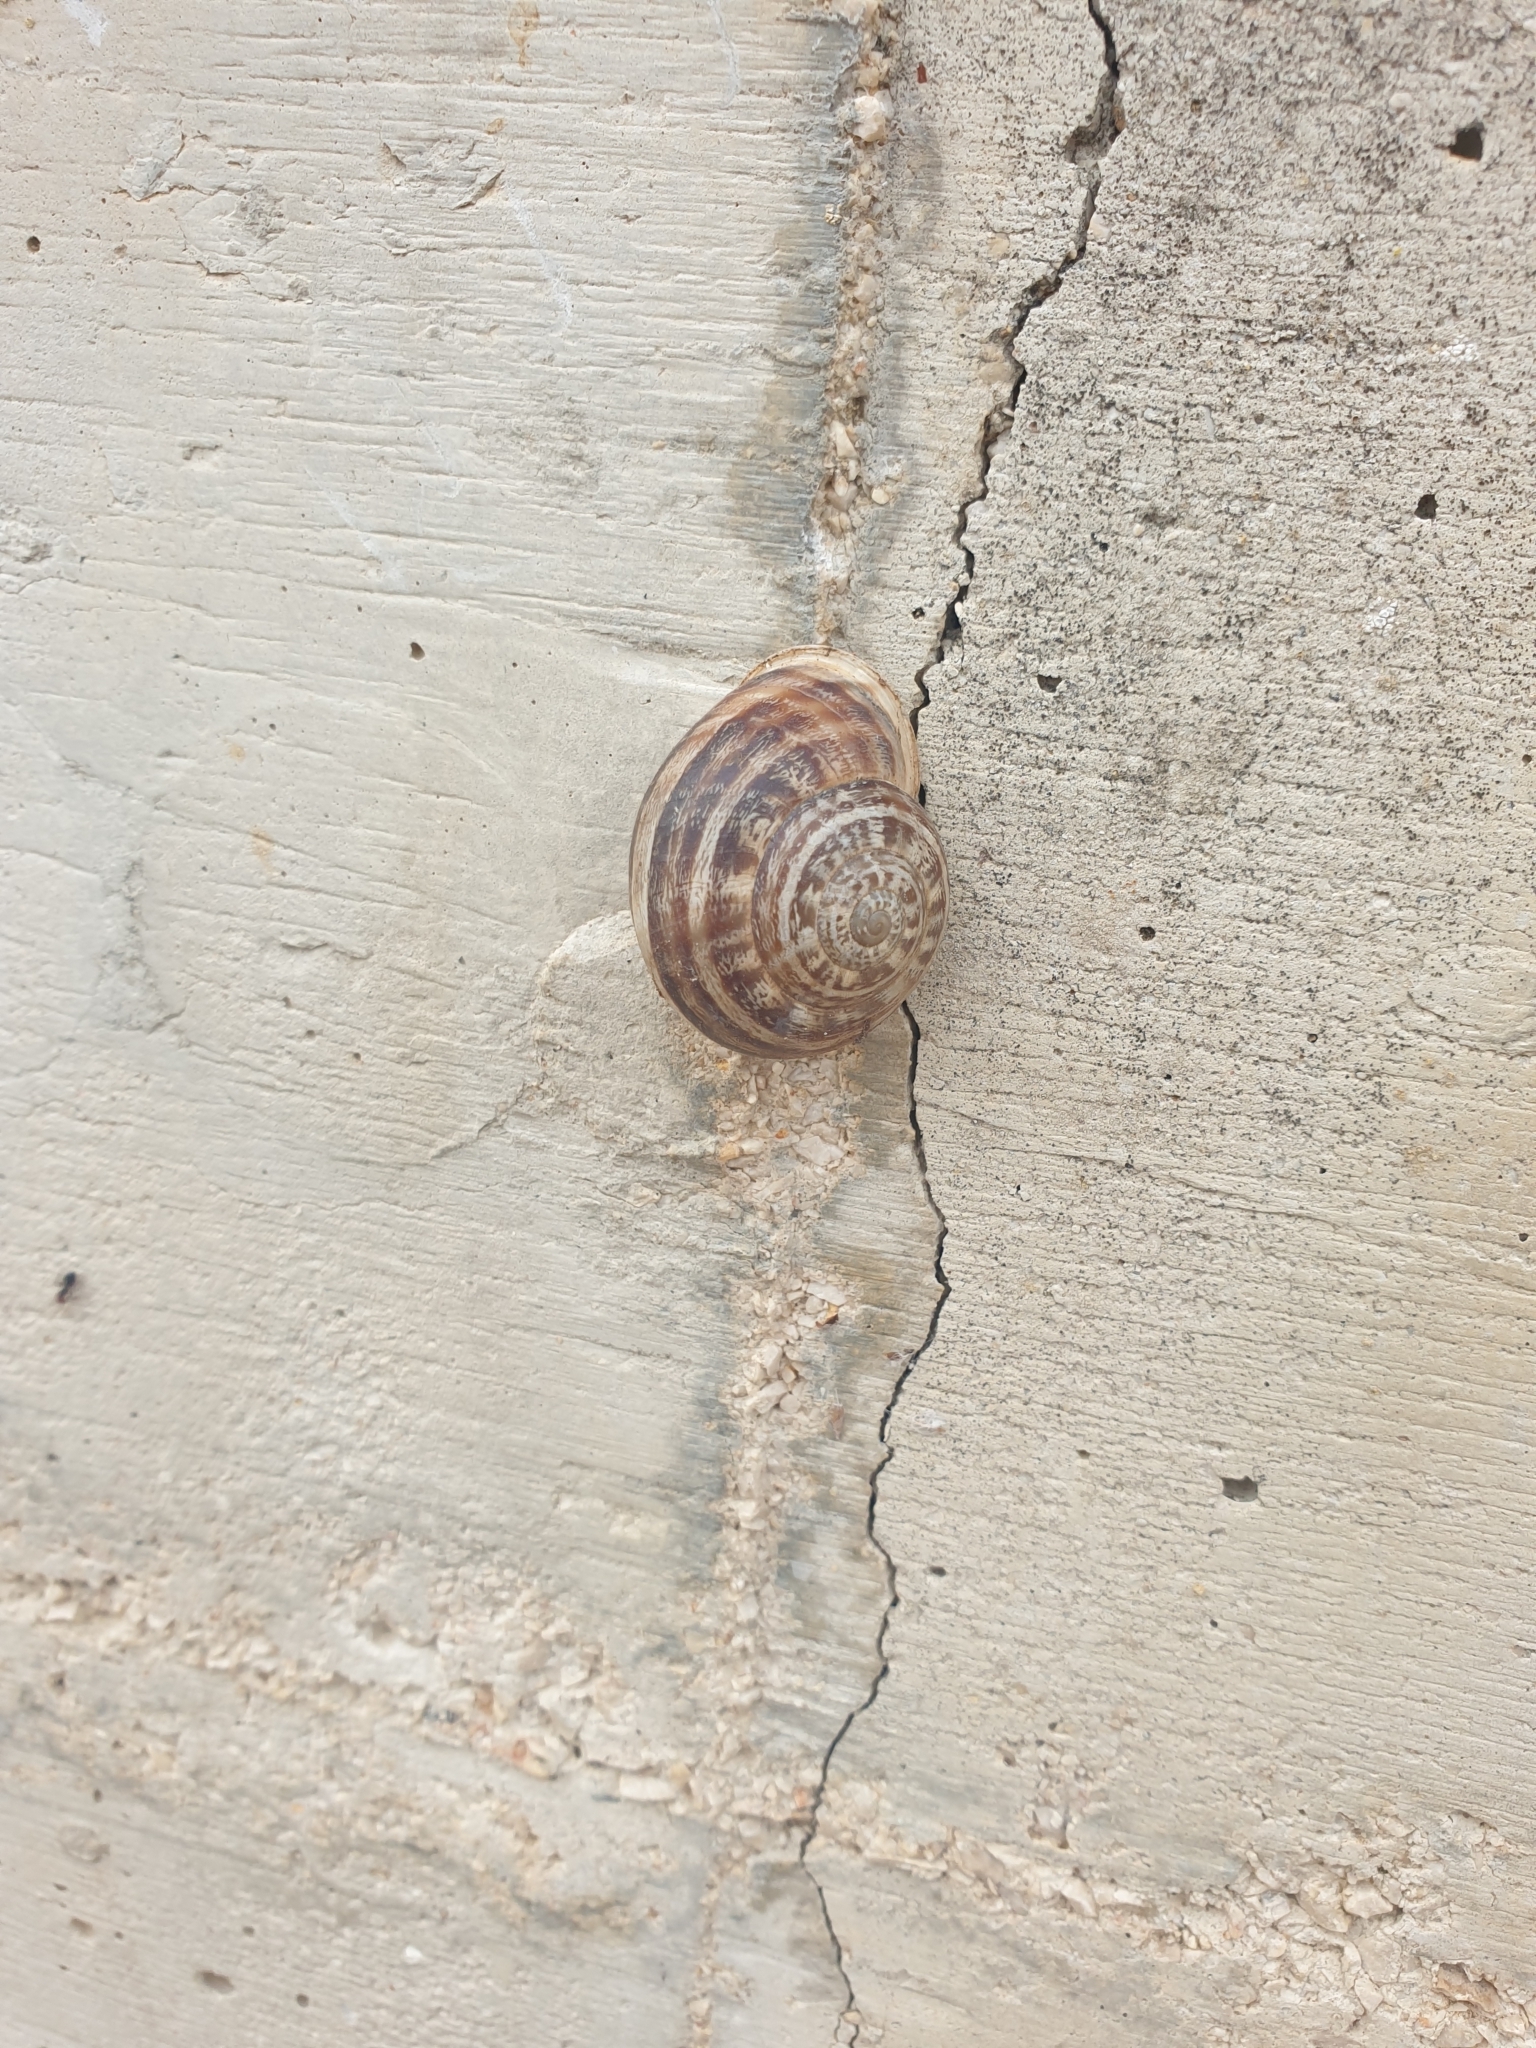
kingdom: Animalia
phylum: Mollusca
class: Gastropoda
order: Stylommatophora
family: Helicidae
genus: Eobania
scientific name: Eobania vermiculata
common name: Chocolateband snail
